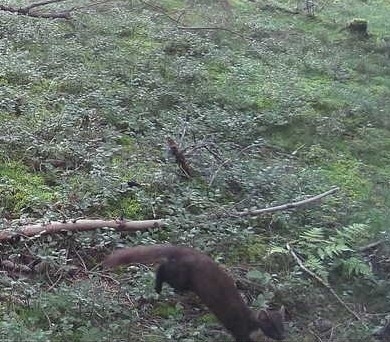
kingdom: Animalia
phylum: Chordata
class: Mammalia
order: Carnivora
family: Mustelidae
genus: Martes
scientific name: Martes martes
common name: European pine marten
